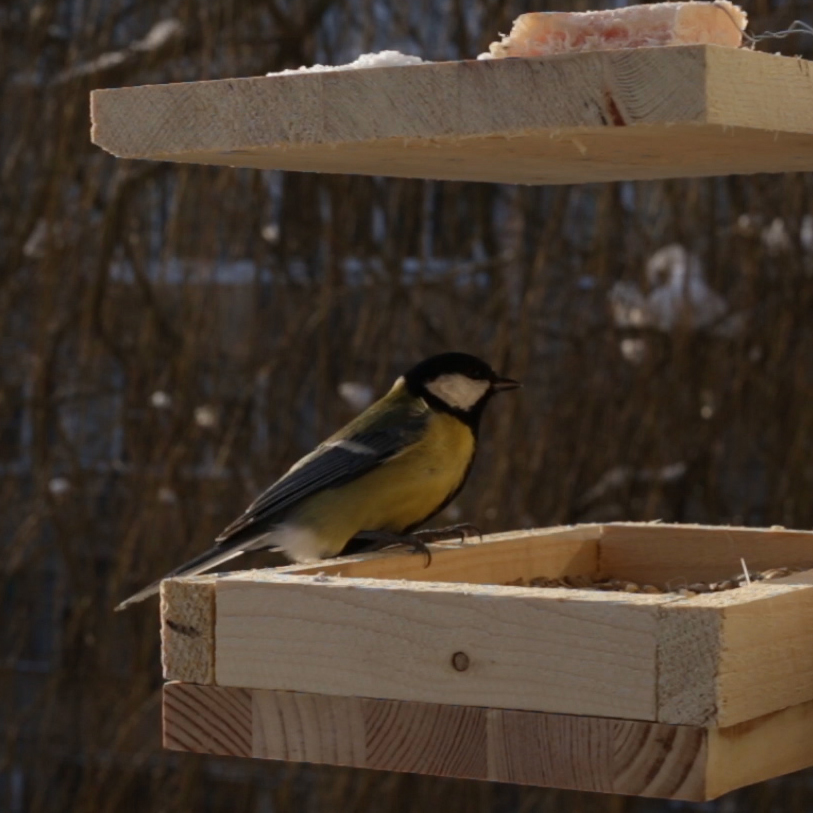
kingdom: Animalia
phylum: Chordata
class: Aves
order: Passeriformes
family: Paridae
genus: Parus
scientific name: Parus major
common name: Great tit
